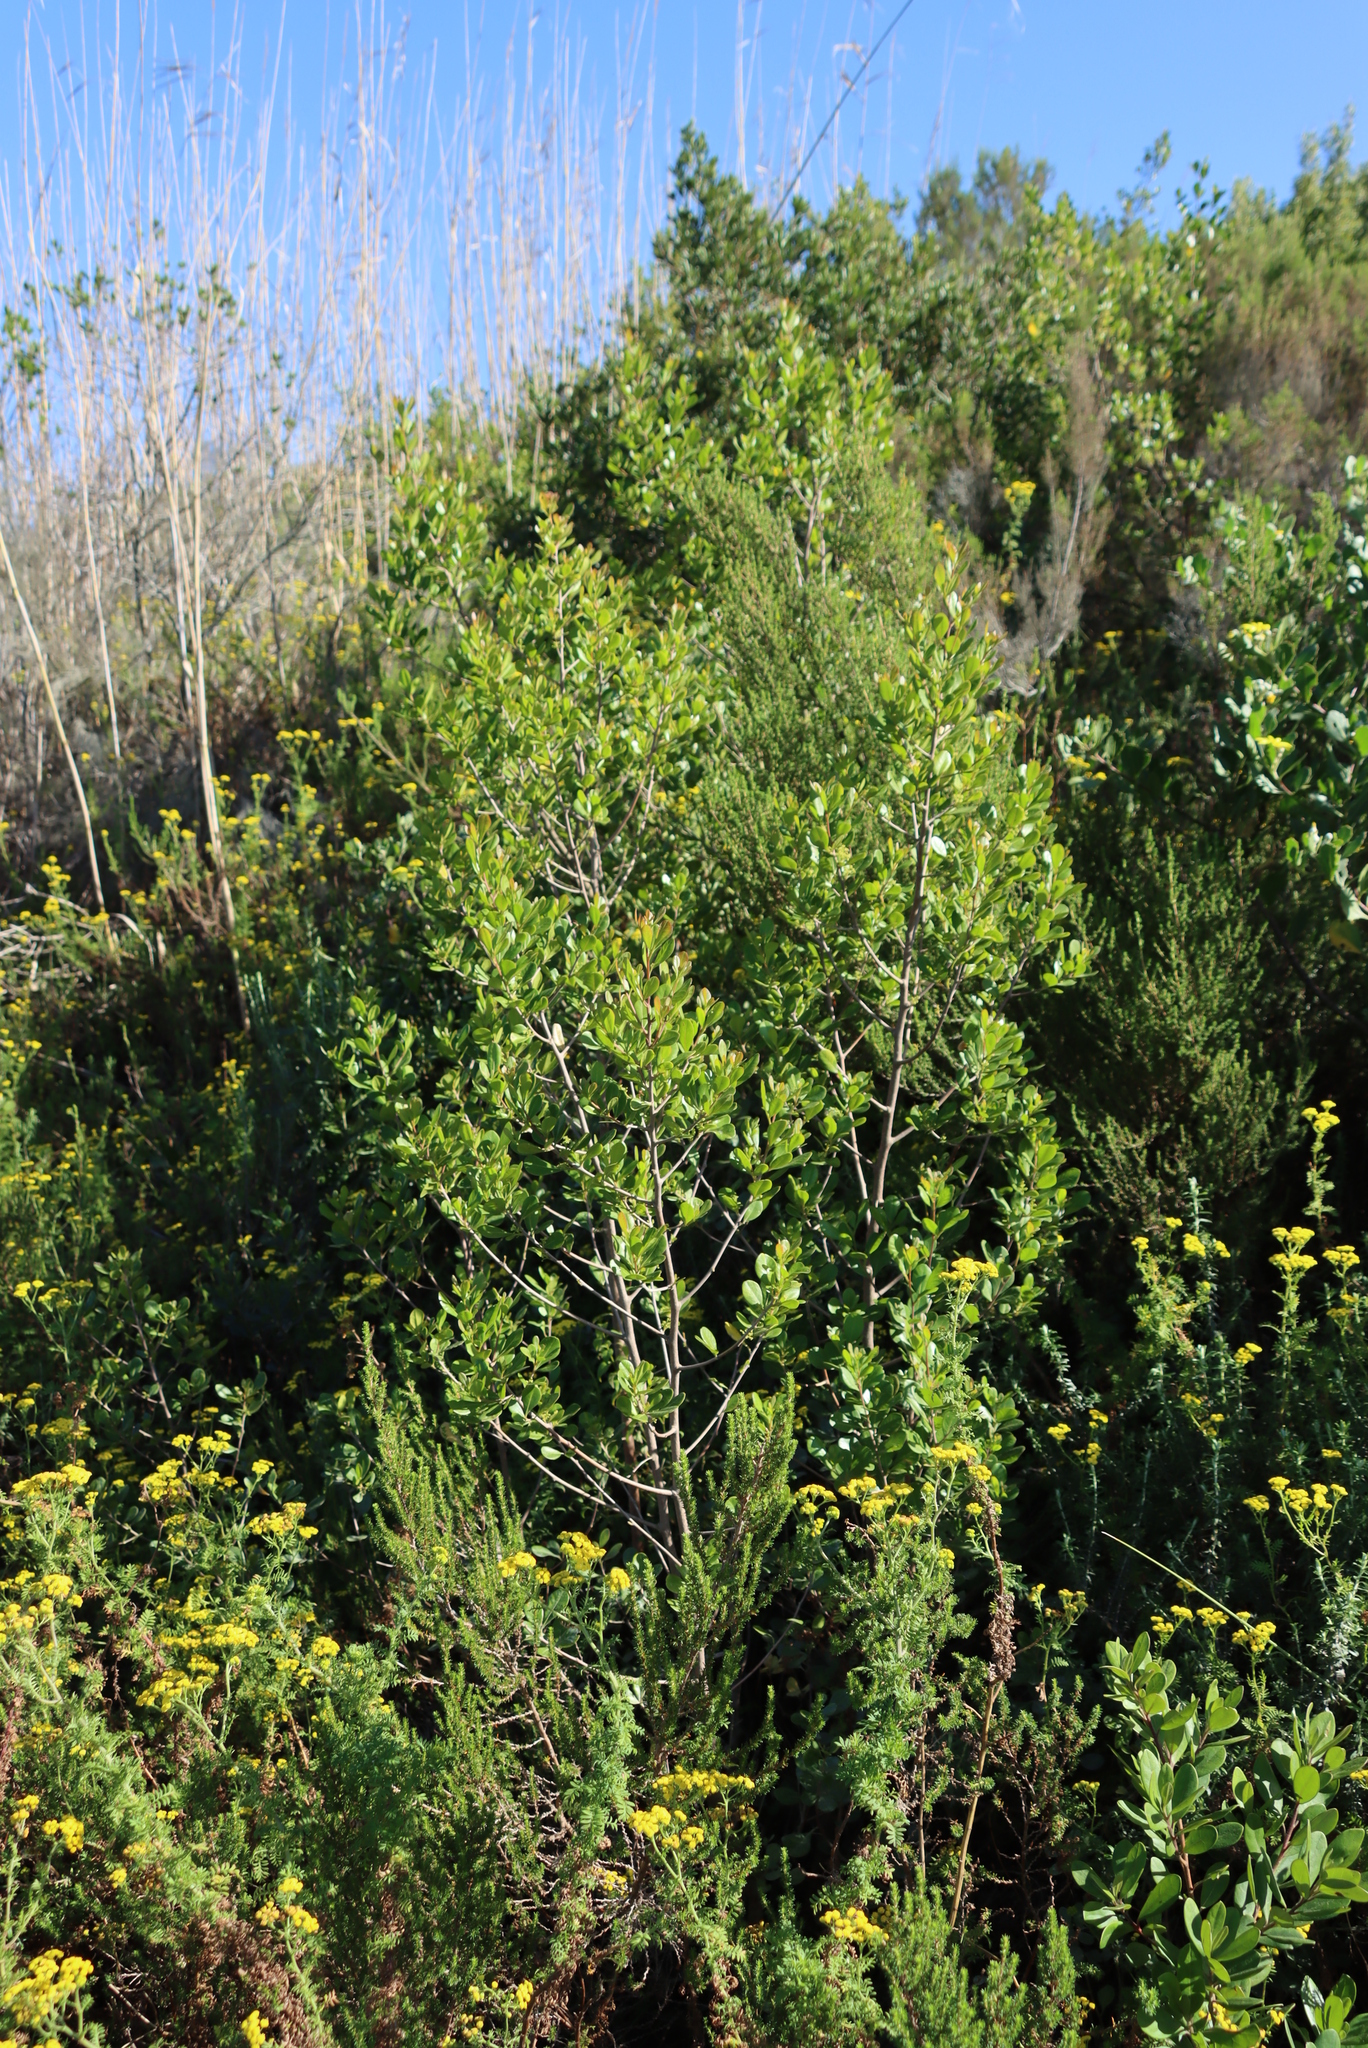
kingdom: Plantae
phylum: Tracheophyta
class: Magnoliopsida
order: Sapindales
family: Anacardiaceae
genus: Searsia
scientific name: Searsia lucida
